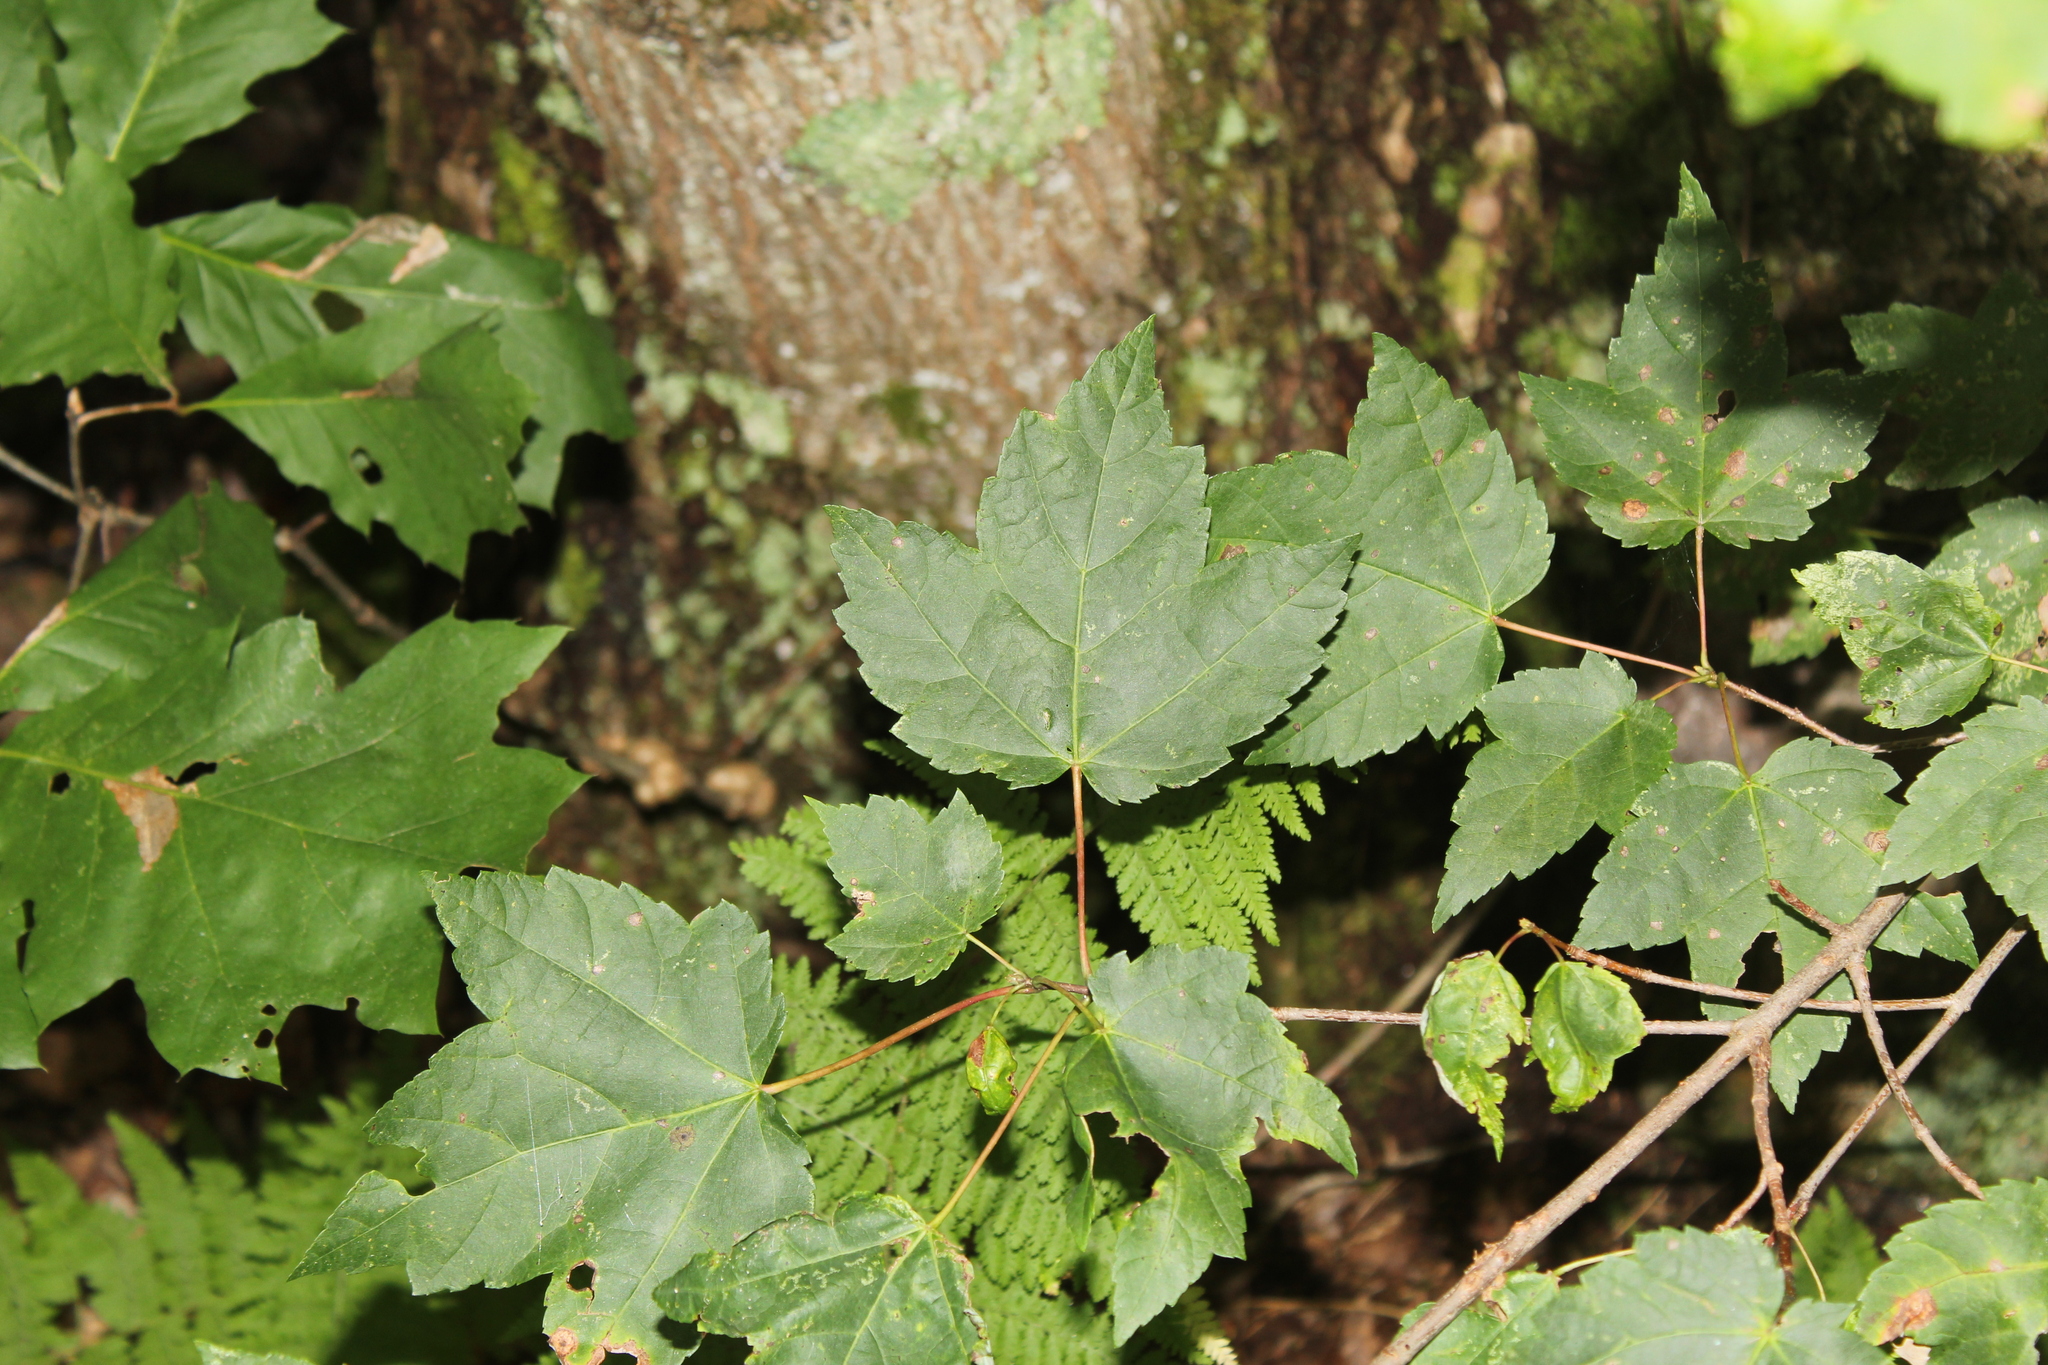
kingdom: Plantae
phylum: Tracheophyta
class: Magnoliopsida
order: Sapindales
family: Sapindaceae
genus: Acer
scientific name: Acer rubrum
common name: Red maple
